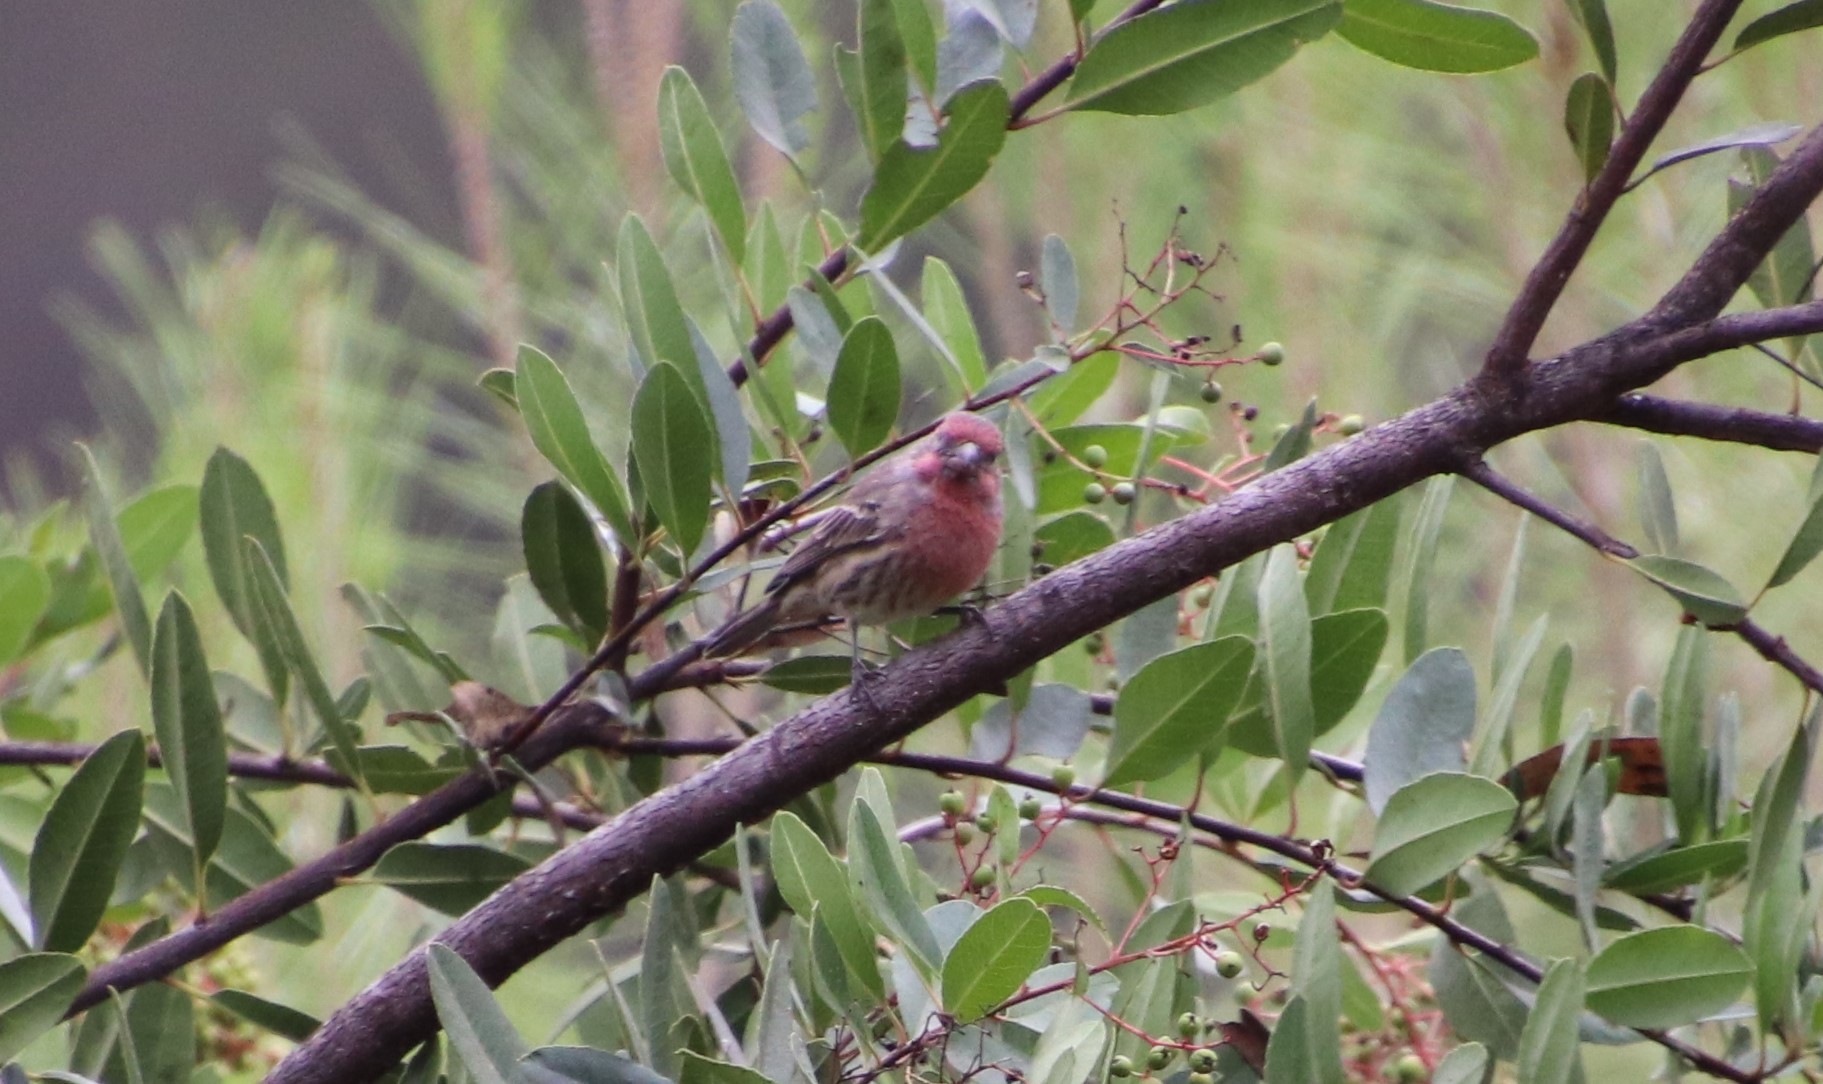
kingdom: Animalia
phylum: Chordata
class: Aves
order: Passeriformes
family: Fringillidae
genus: Haemorhous
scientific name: Haemorhous mexicanus
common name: House finch
